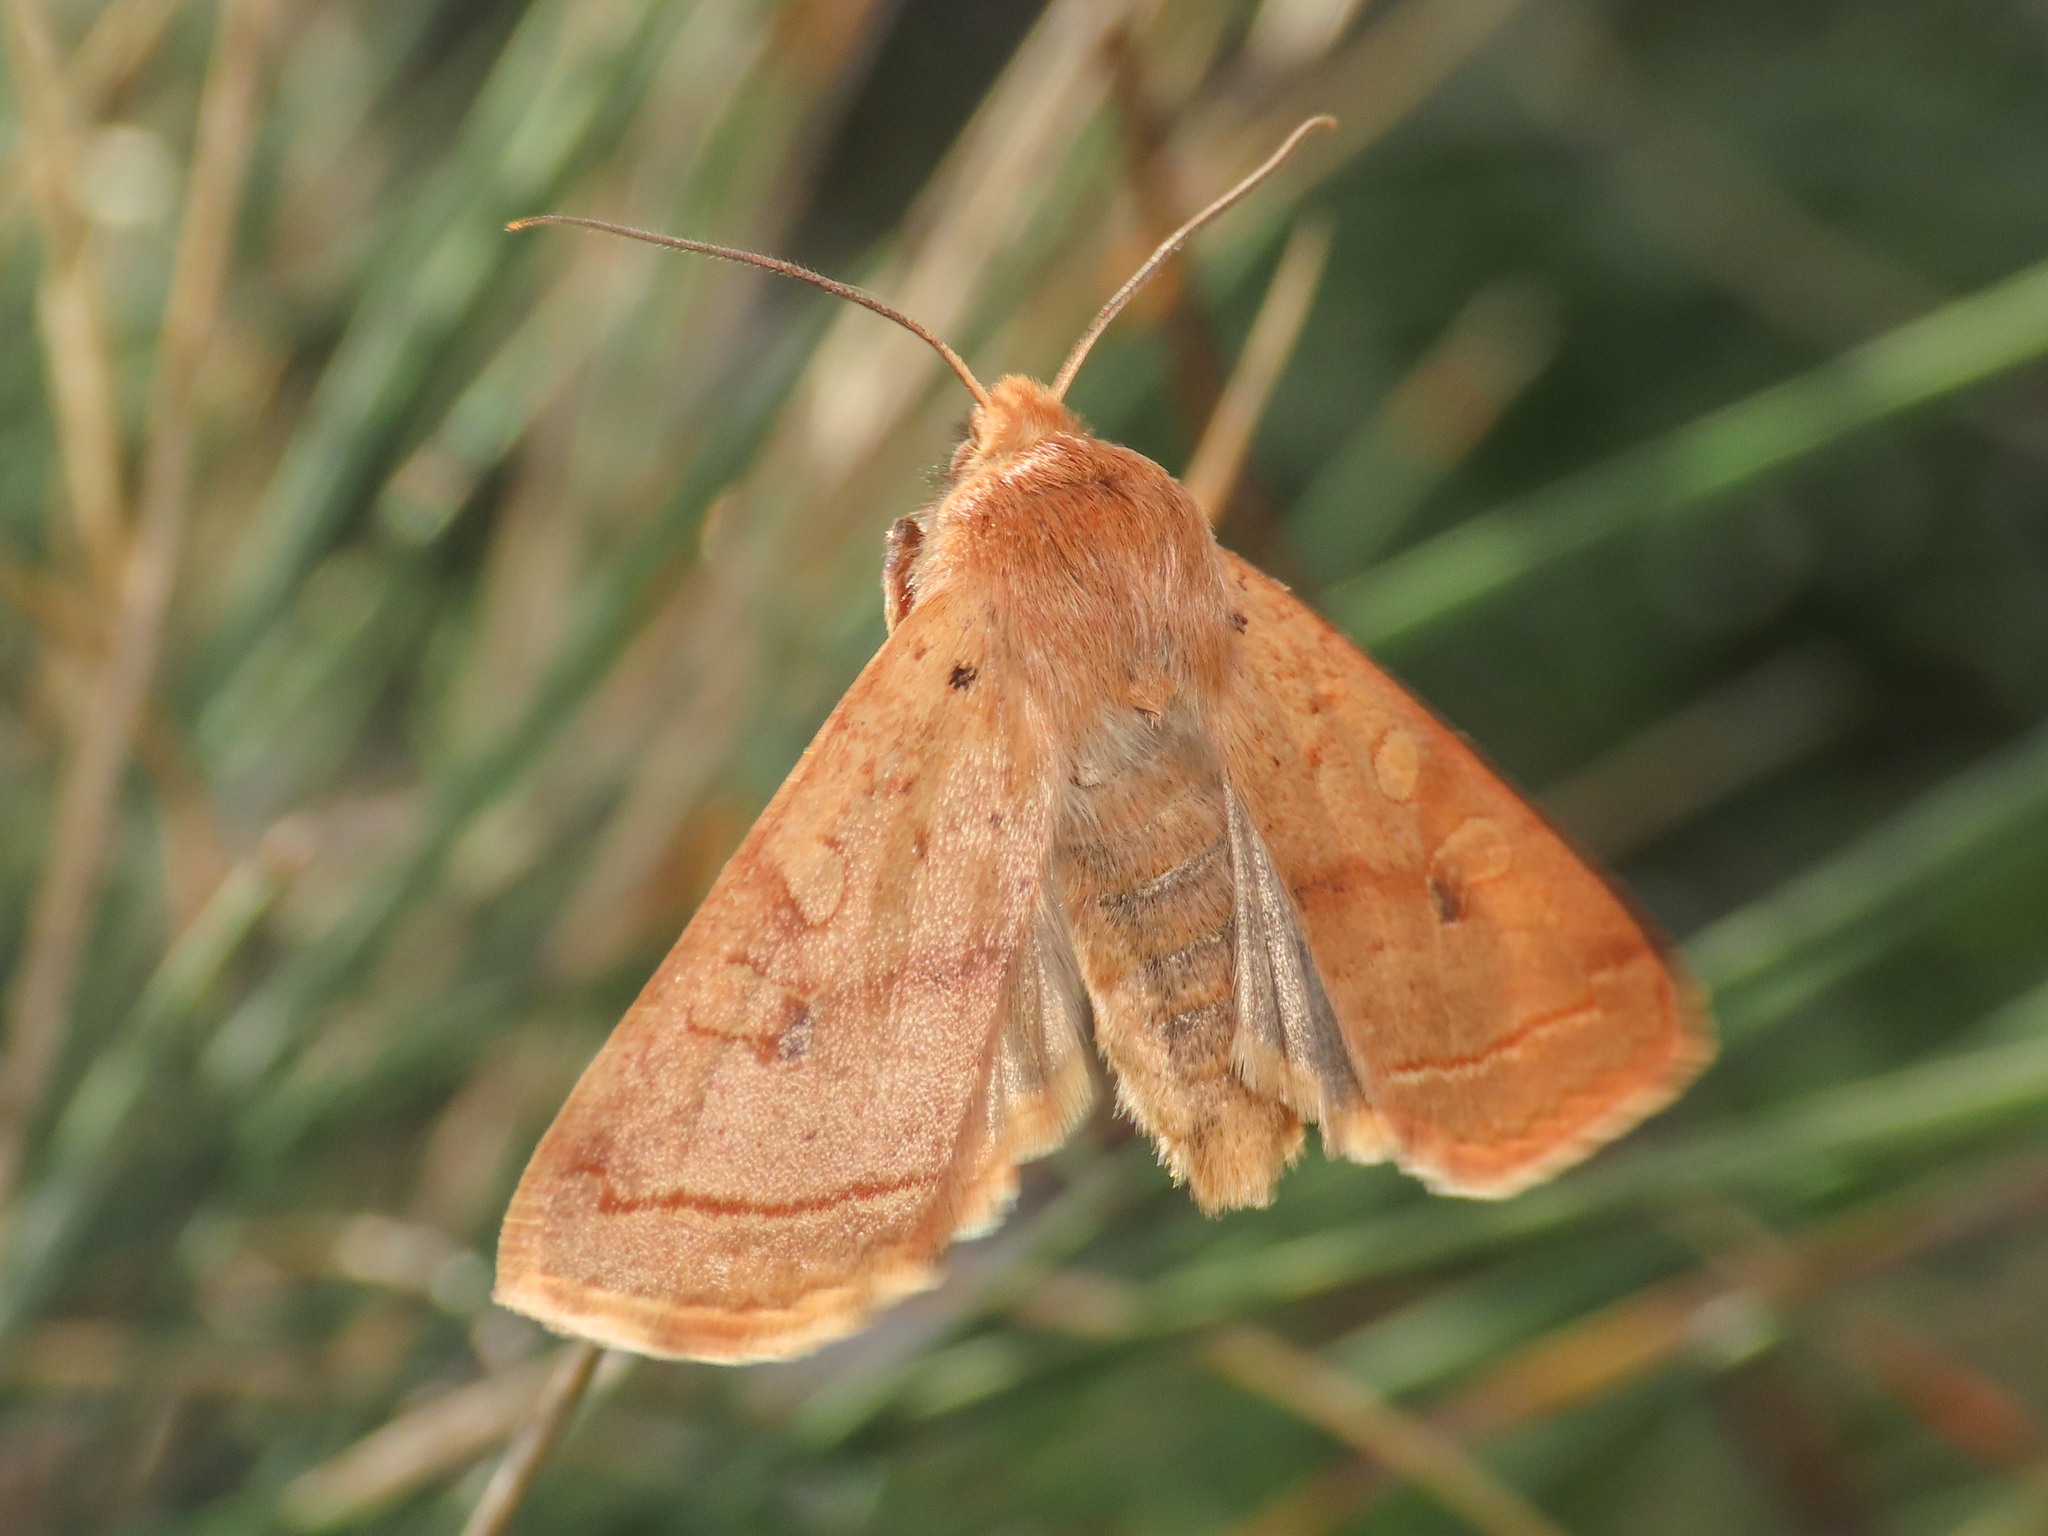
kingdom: Animalia
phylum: Arthropoda
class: Insecta
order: Lepidoptera
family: Noctuidae
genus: Agrochola
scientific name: Agrochola macilenta
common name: Yellow-line quaker
